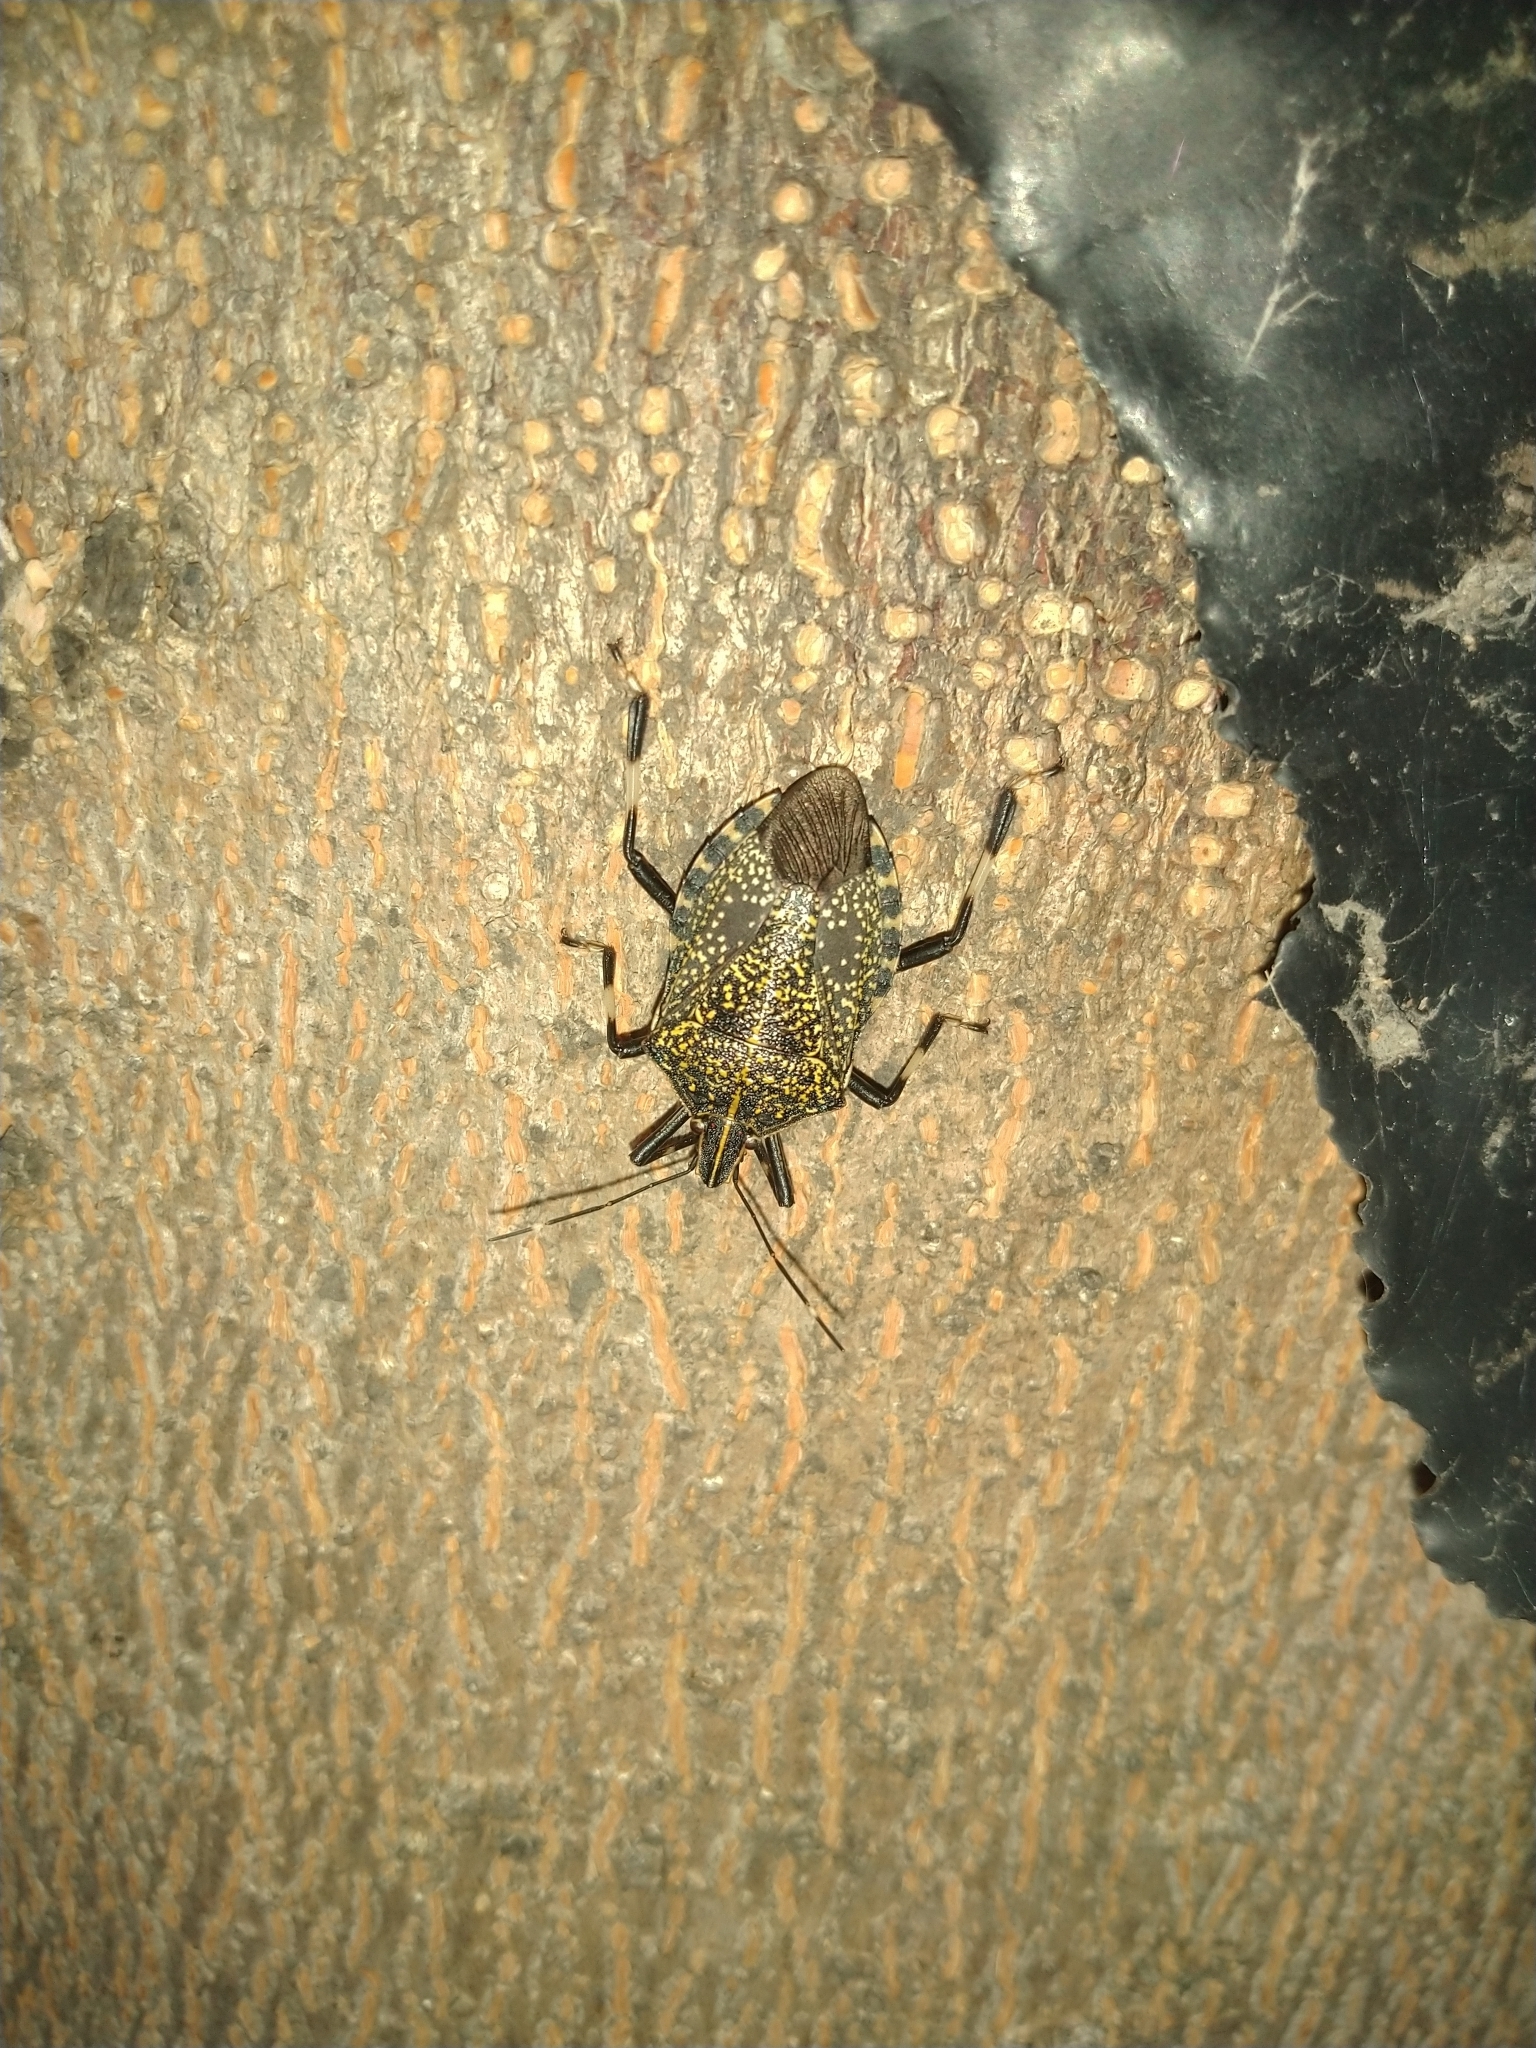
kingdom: Animalia
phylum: Arthropoda
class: Insecta
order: Hemiptera
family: Pentatomidae
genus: Erthesina
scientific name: Erthesina fullo
